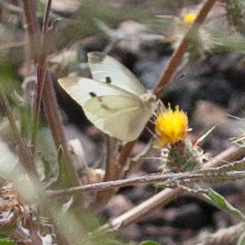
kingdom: Animalia
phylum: Arthropoda
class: Insecta
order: Lepidoptera
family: Pieridae
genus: Pieris
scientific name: Pieris rapae
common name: Small white
